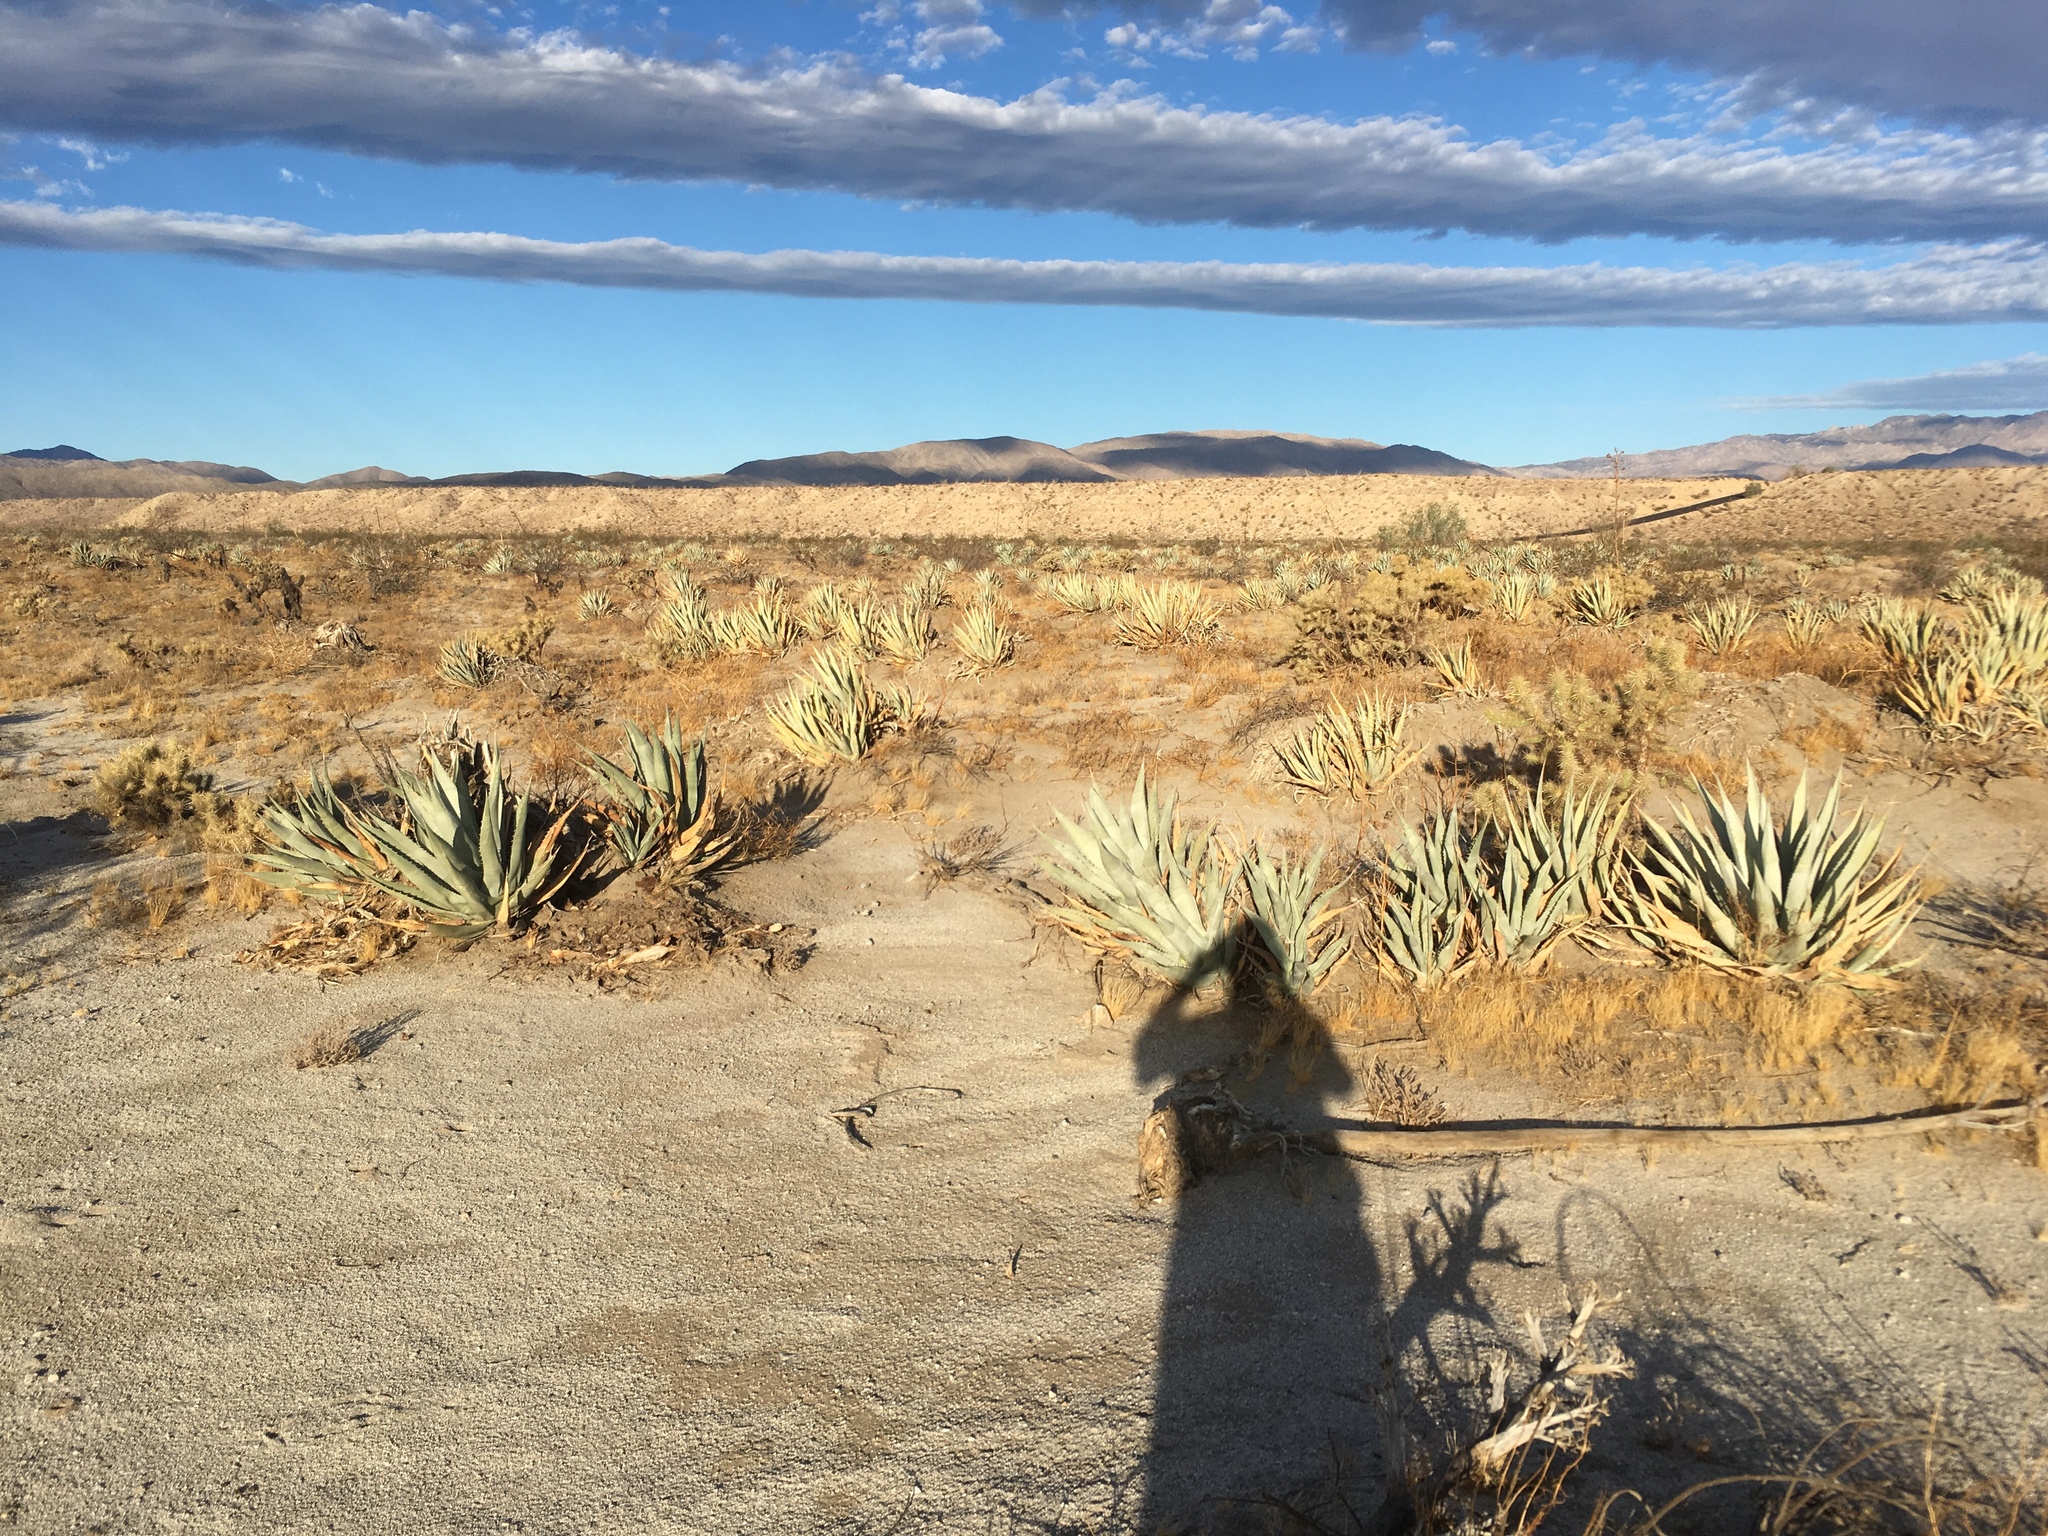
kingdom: Plantae
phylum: Tracheophyta
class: Liliopsida
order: Asparagales
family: Asparagaceae
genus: Agave
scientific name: Agave deserti
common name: Desert agave
